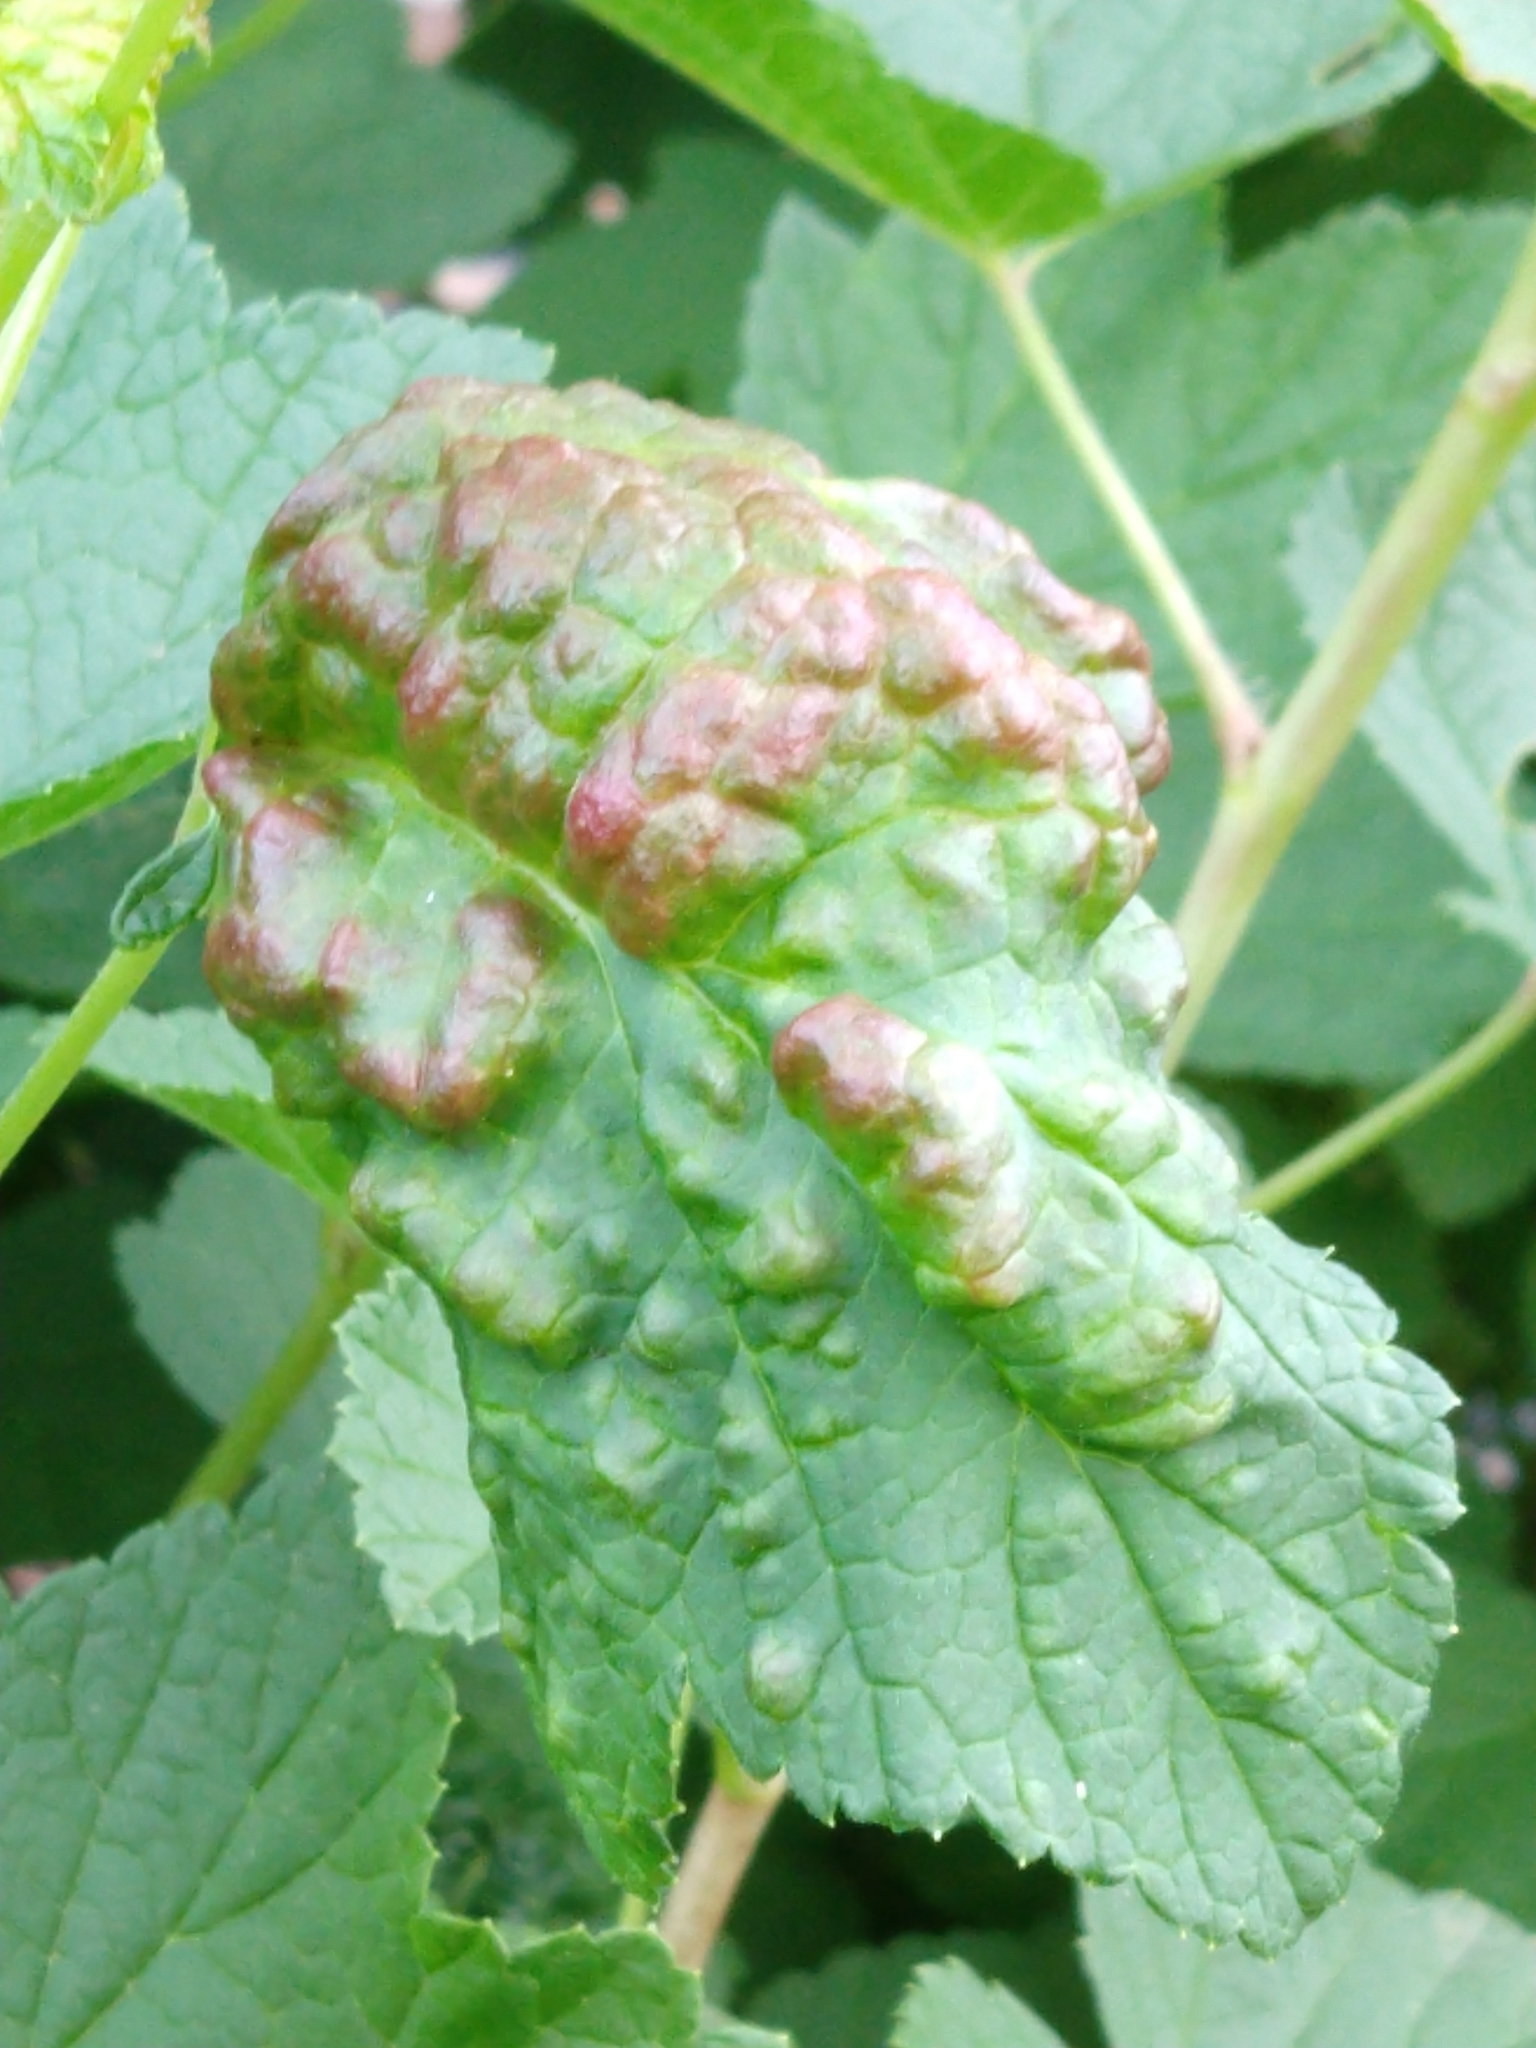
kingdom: Animalia
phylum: Arthropoda
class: Insecta
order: Hemiptera
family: Aphididae
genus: Cryptomyzus
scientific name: Cryptomyzus ribis
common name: Currant aphid
